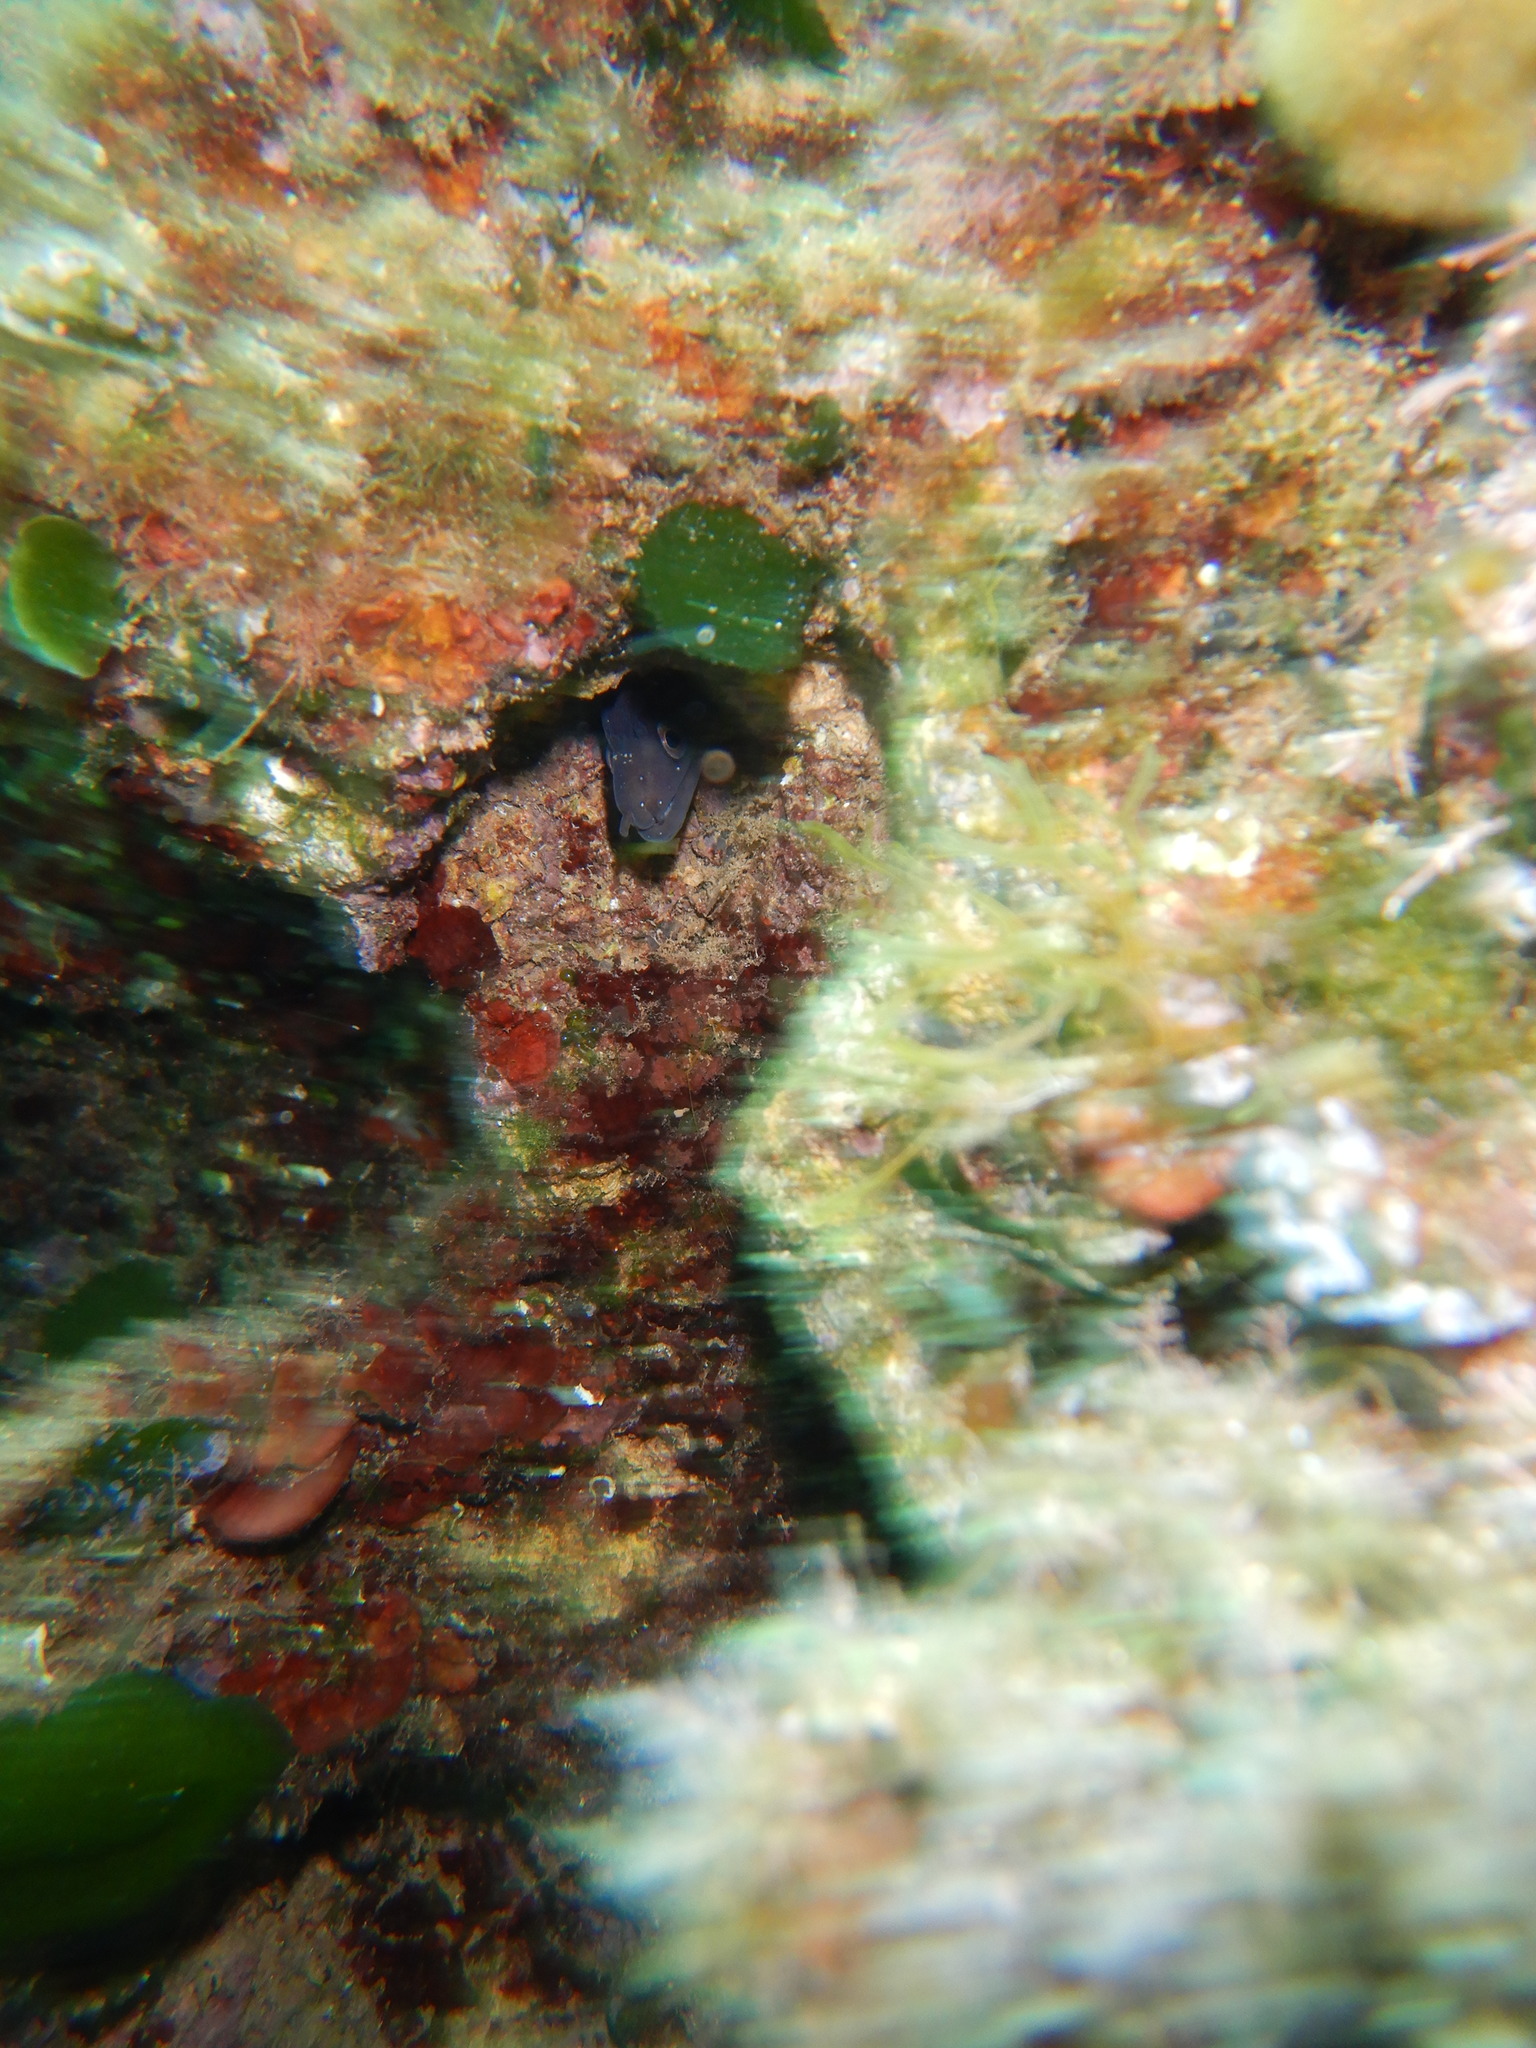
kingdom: Animalia
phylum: Chordata
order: Anguilliformes
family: Muraenidae
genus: Muraena
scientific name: Muraena helena
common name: Mediterranean moray
